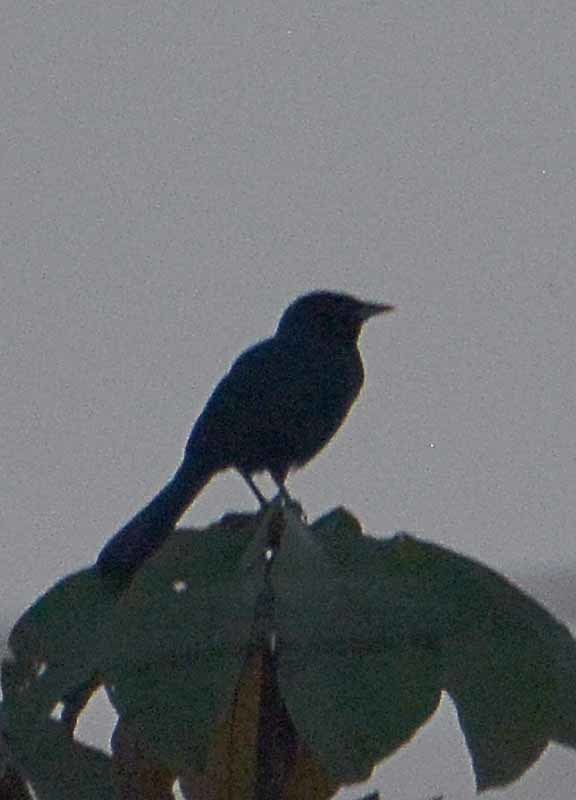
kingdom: Animalia
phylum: Chordata
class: Aves
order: Passeriformes
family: Icteridae
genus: Dives
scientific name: Dives dives
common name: Melodious blackbird
